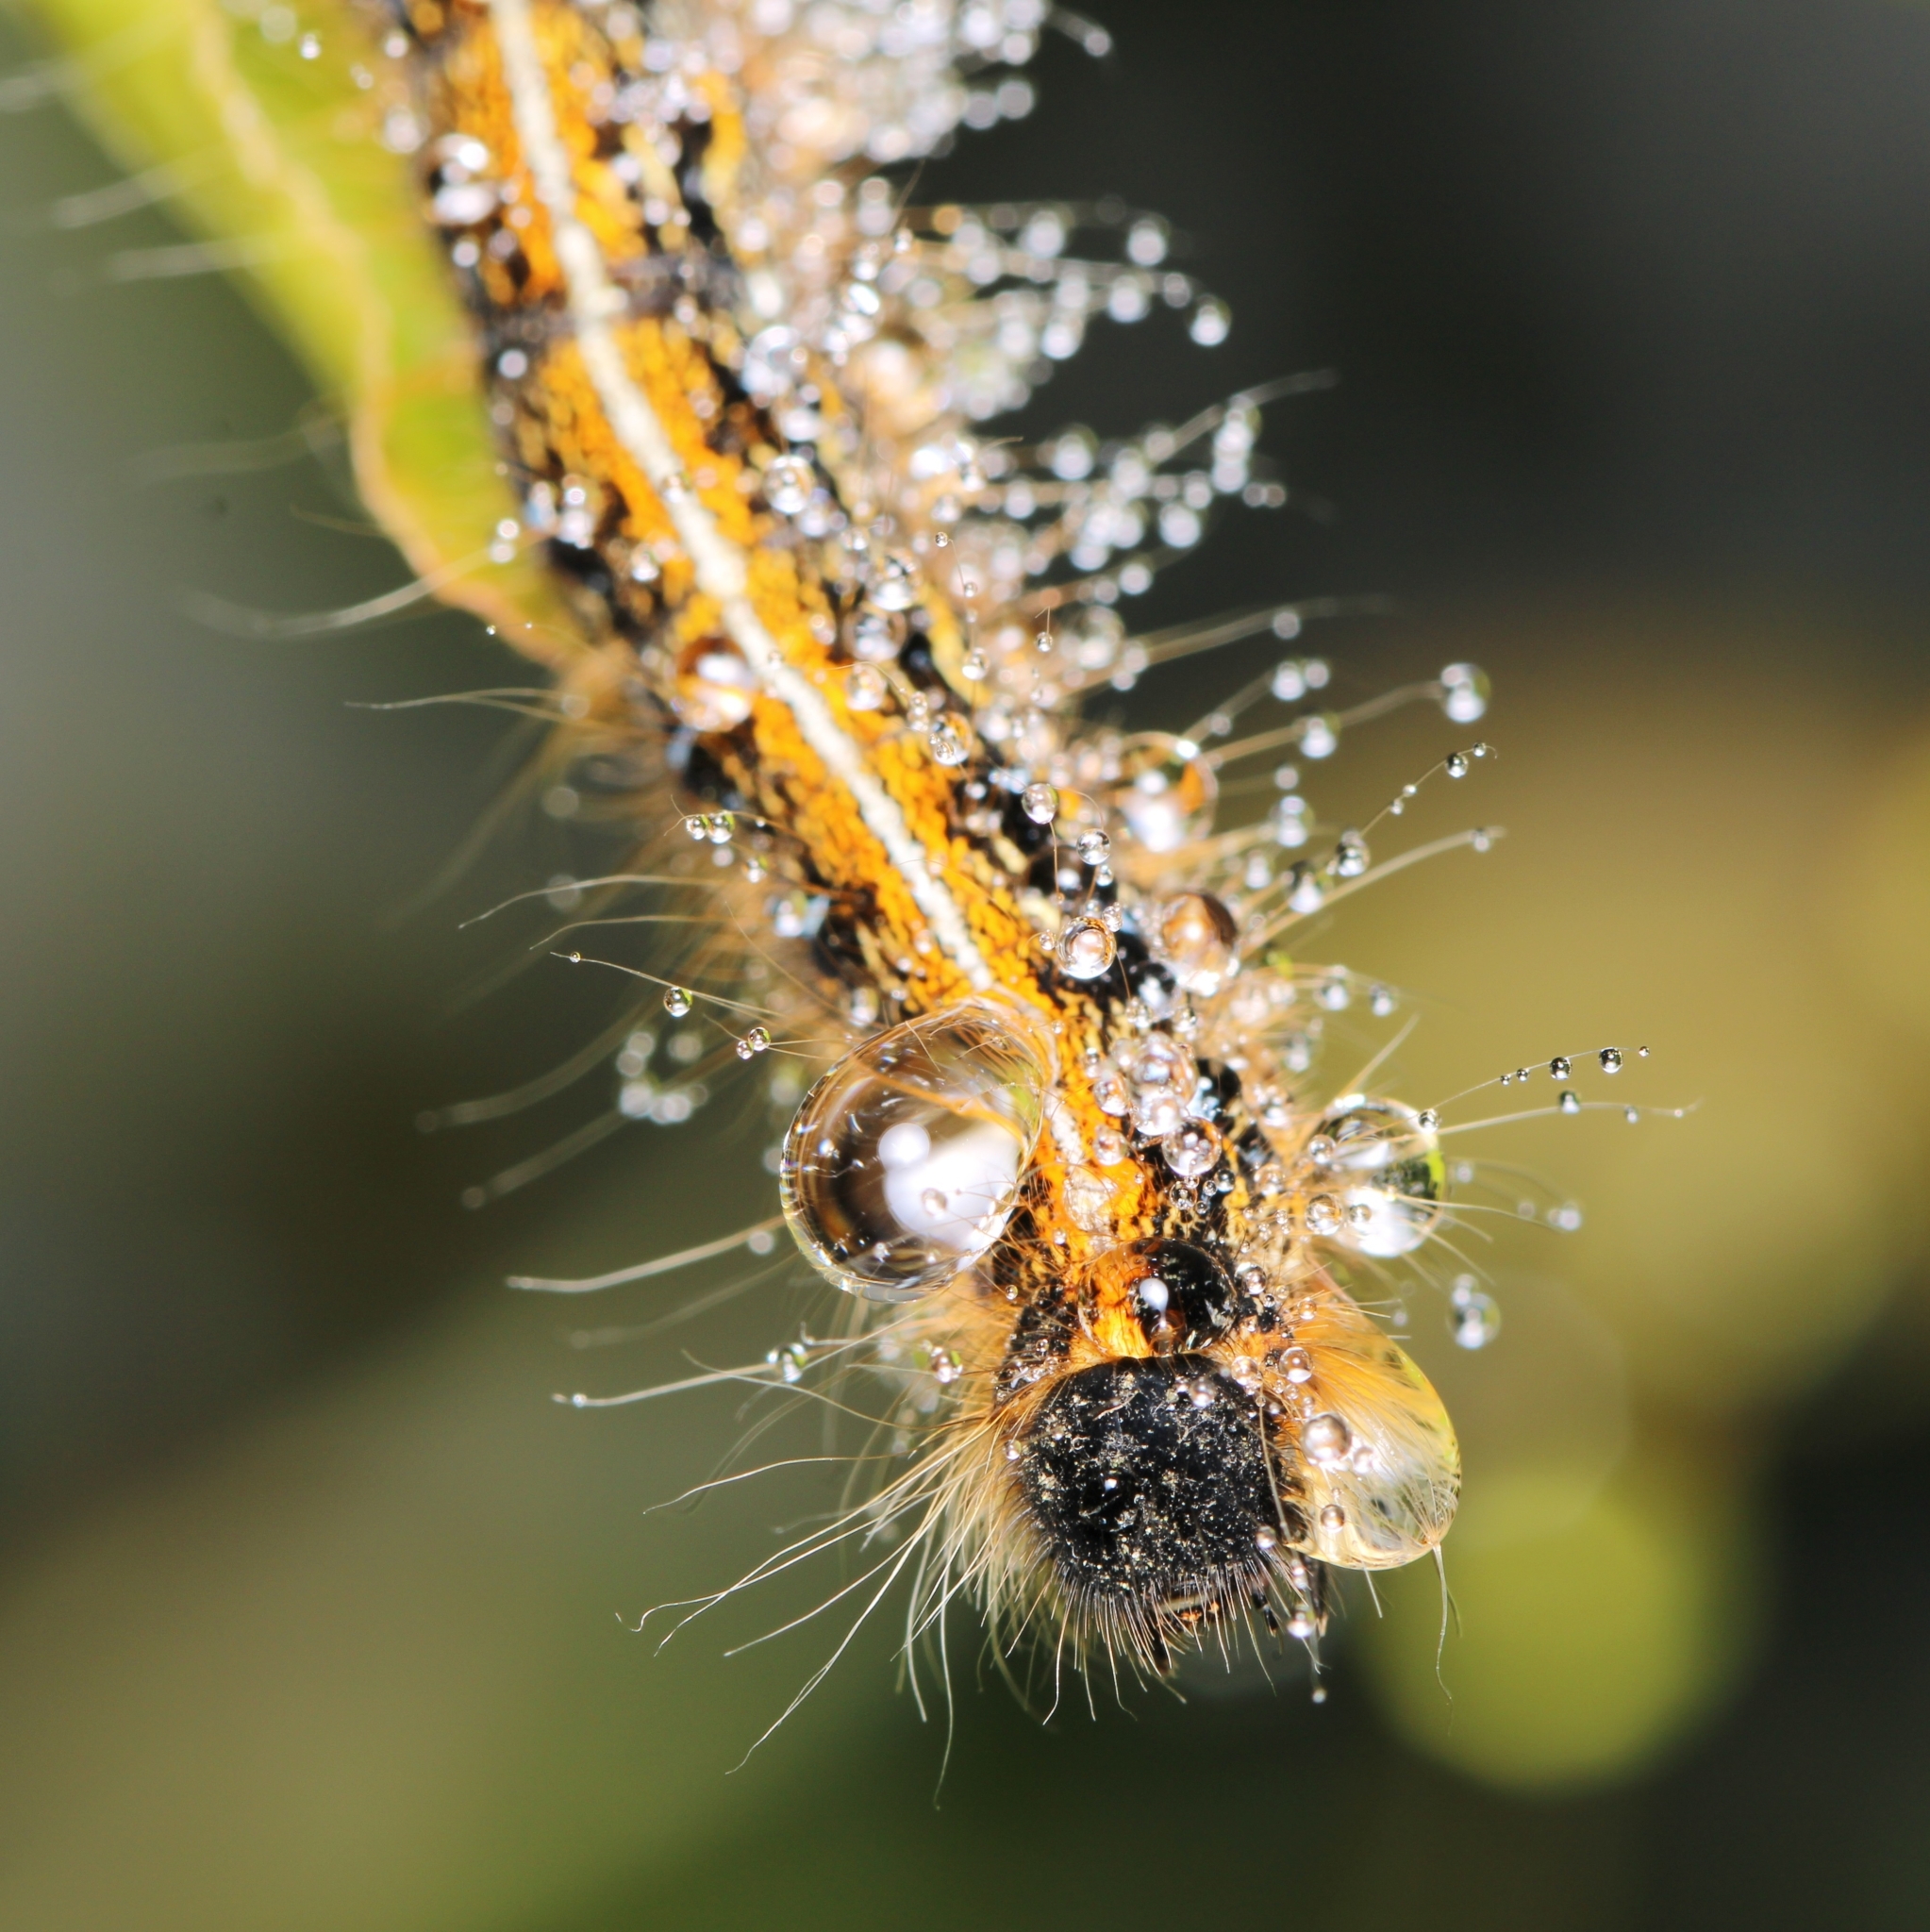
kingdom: Animalia
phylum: Arthropoda
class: Insecta
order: Lepidoptera
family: Lasiocampidae
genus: Malacosoma
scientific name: Malacosoma americana
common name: Eastern tent caterpillar moth
